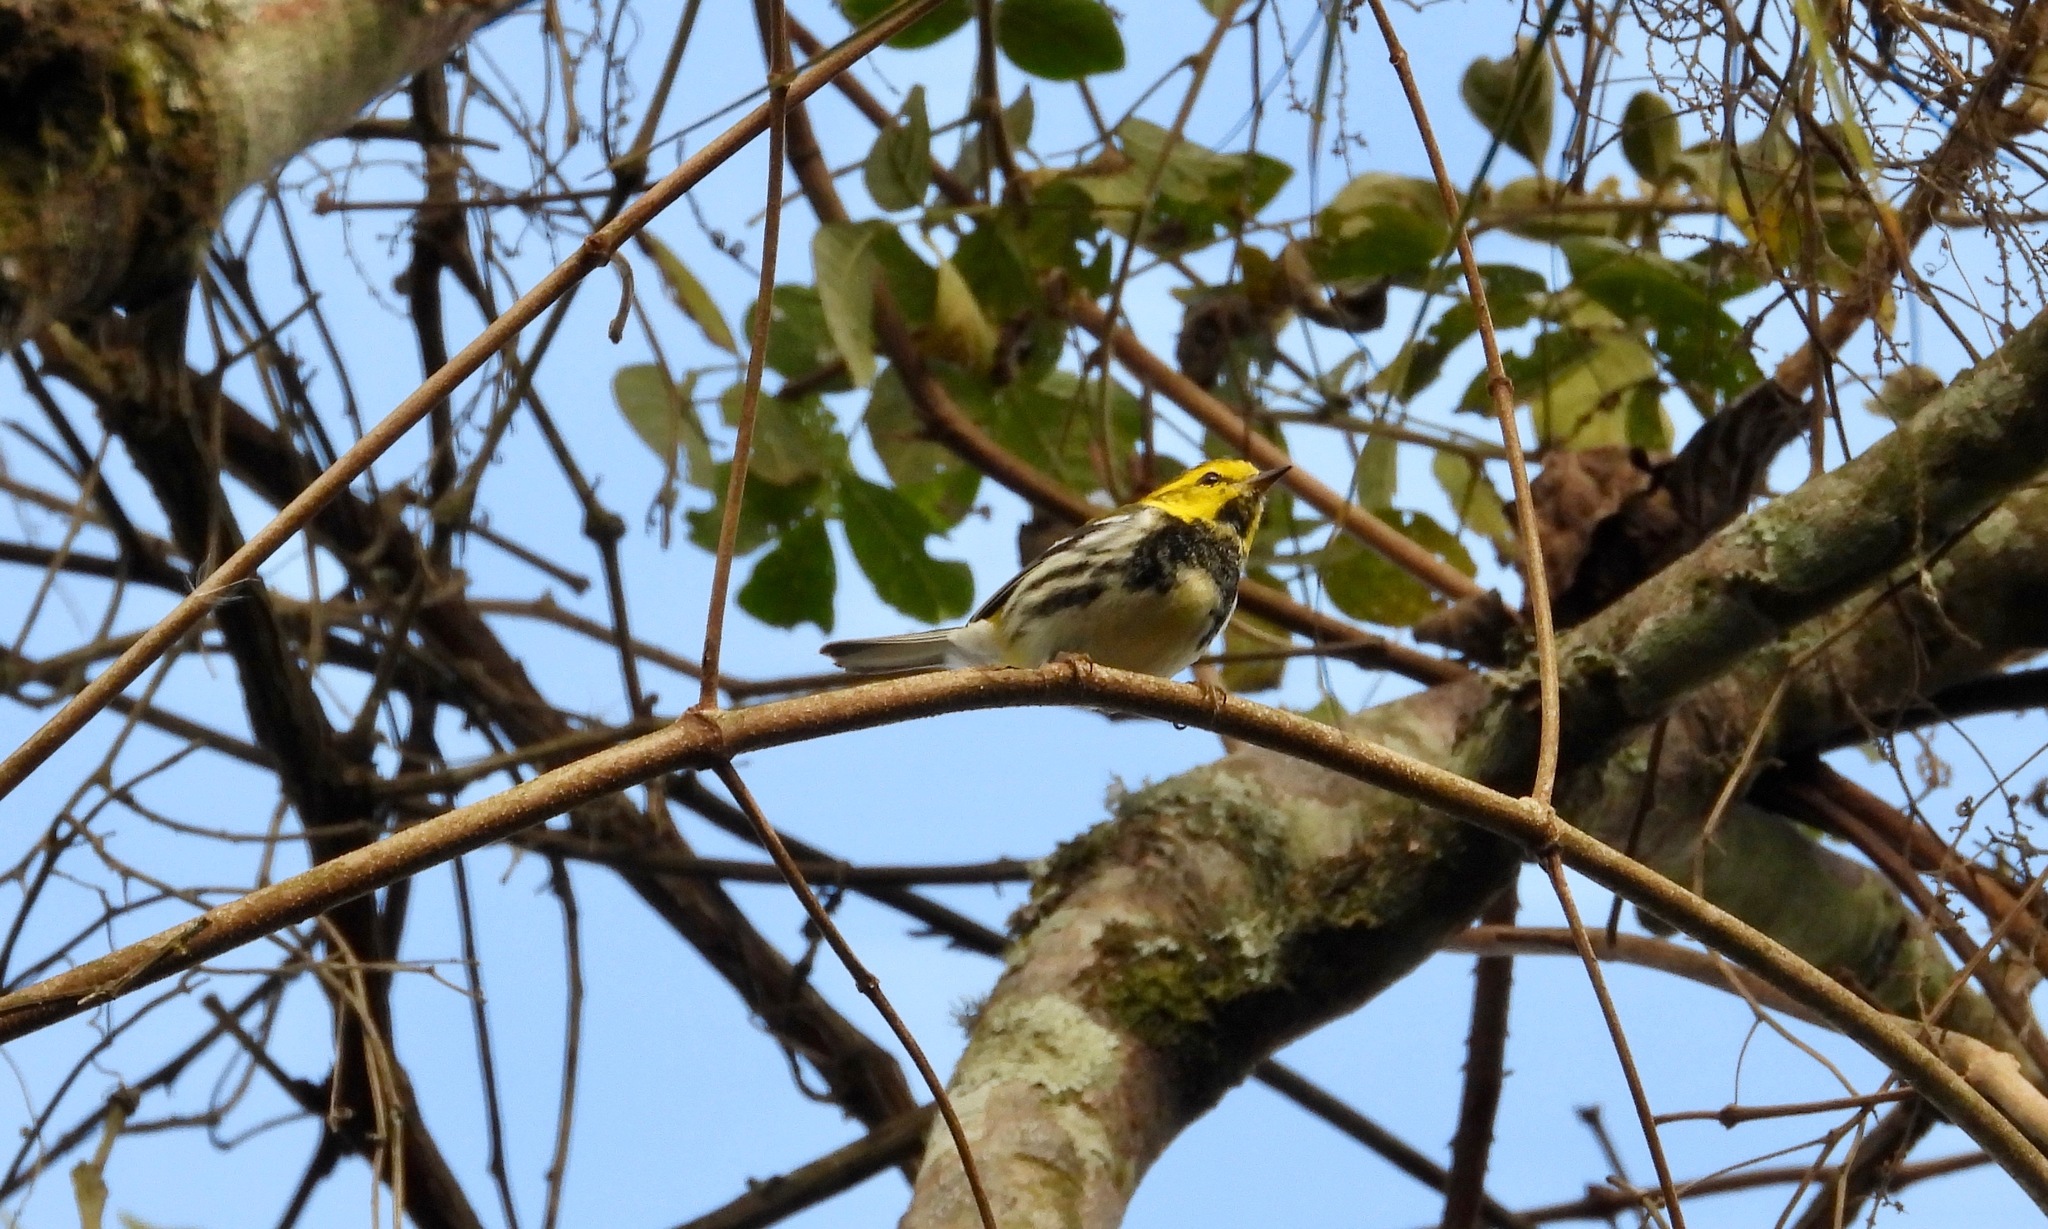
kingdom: Animalia
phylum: Chordata
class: Aves
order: Passeriformes
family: Parulidae
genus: Setophaga
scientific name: Setophaga virens
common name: Black-throated green warbler
